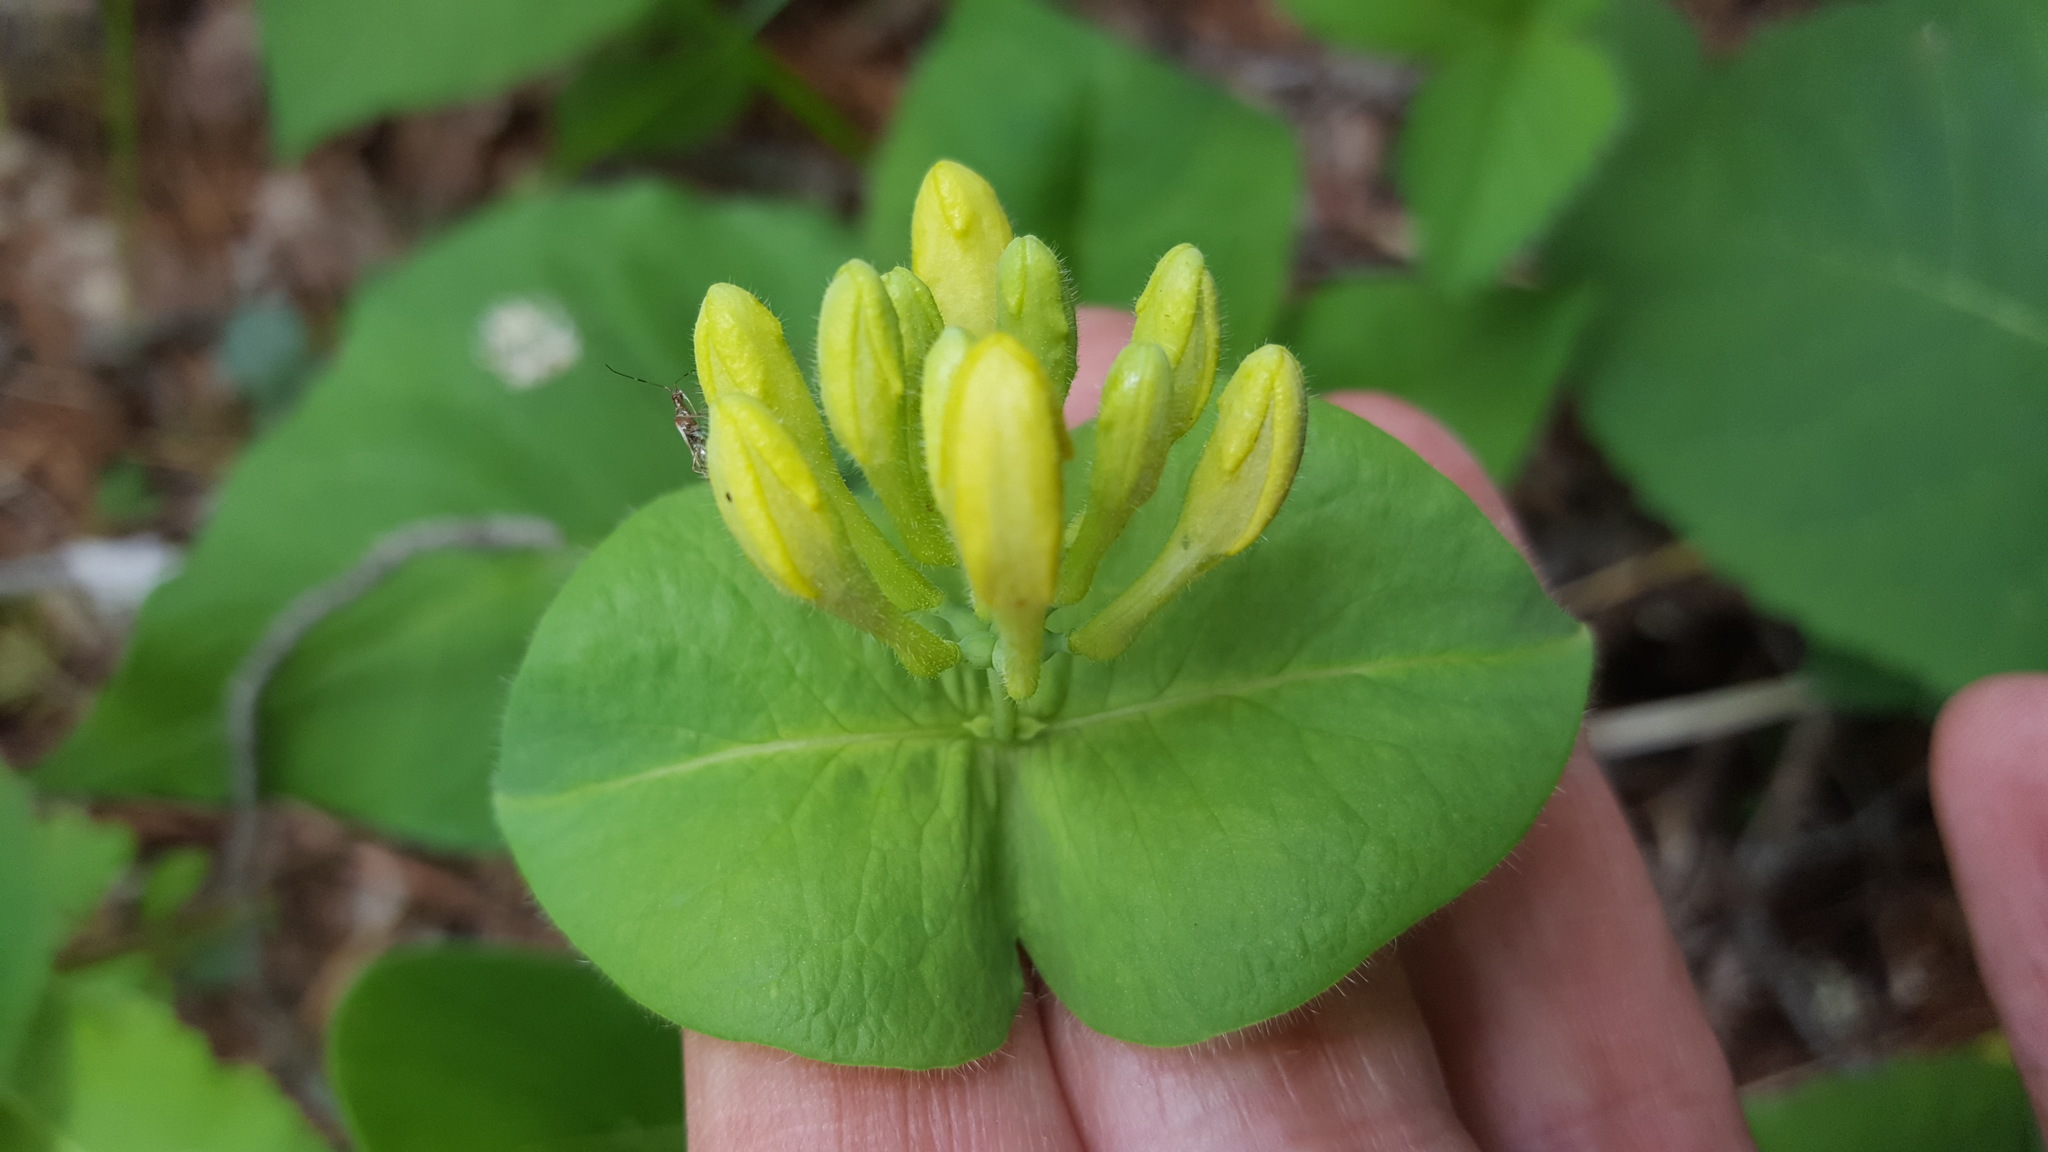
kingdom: Plantae
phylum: Tracheophyta
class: Magnoliopsida
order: Dipsacales
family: Caprifoliaceae
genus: Lonicera
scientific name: Lonicera hirsuta
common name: Hairy honeysuckle
